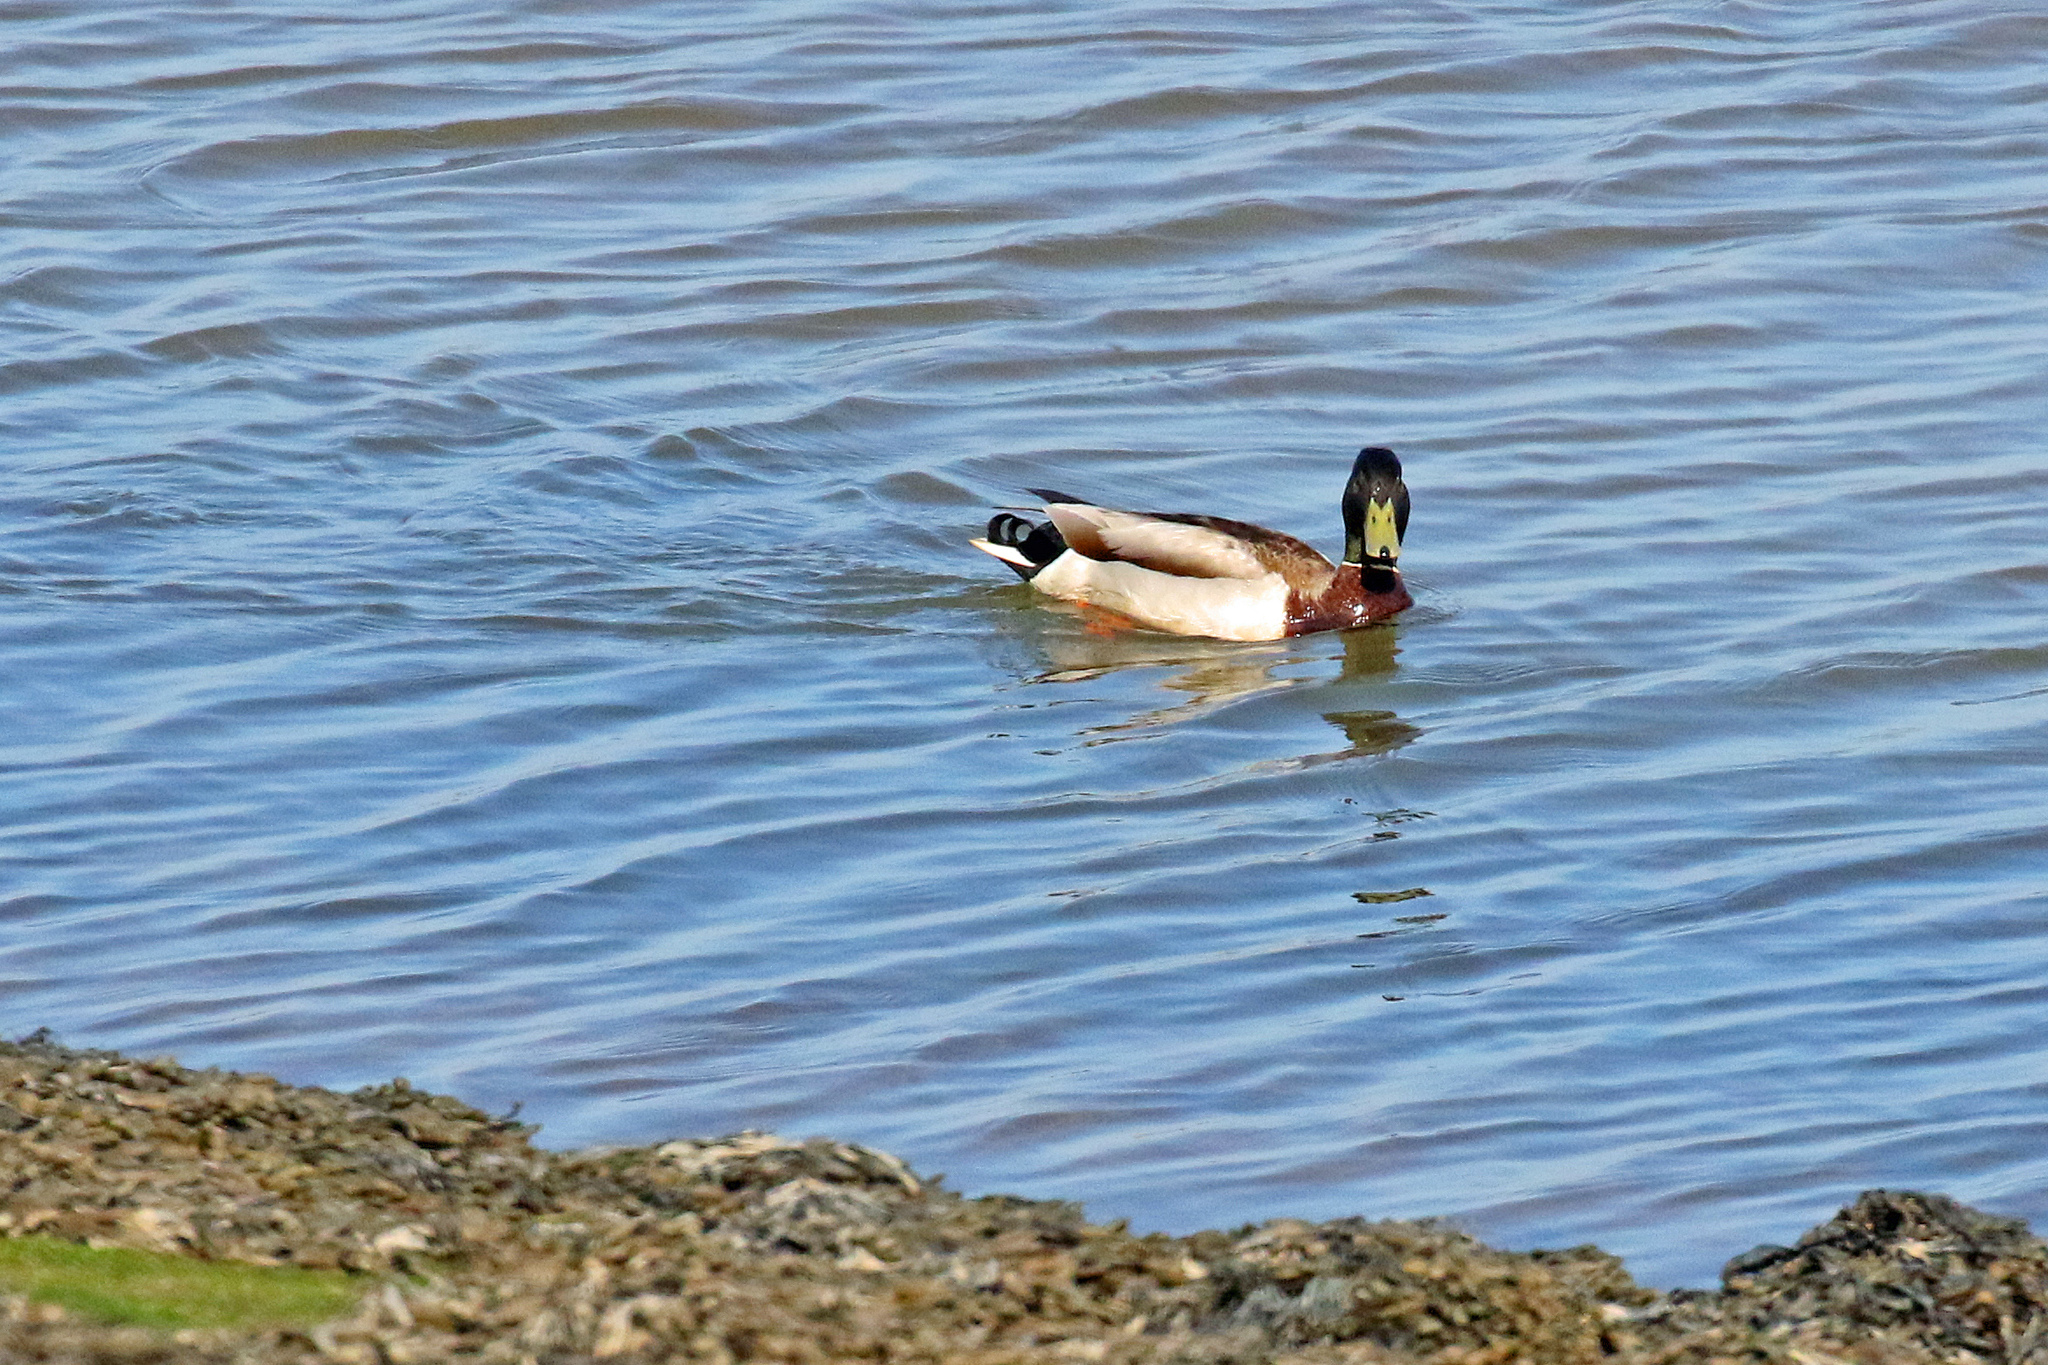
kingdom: Animalia
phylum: Chordata
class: Aves
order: Anseriformes
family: Anatidae
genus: Anas
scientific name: Anas platyrhynchos
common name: Mallard
